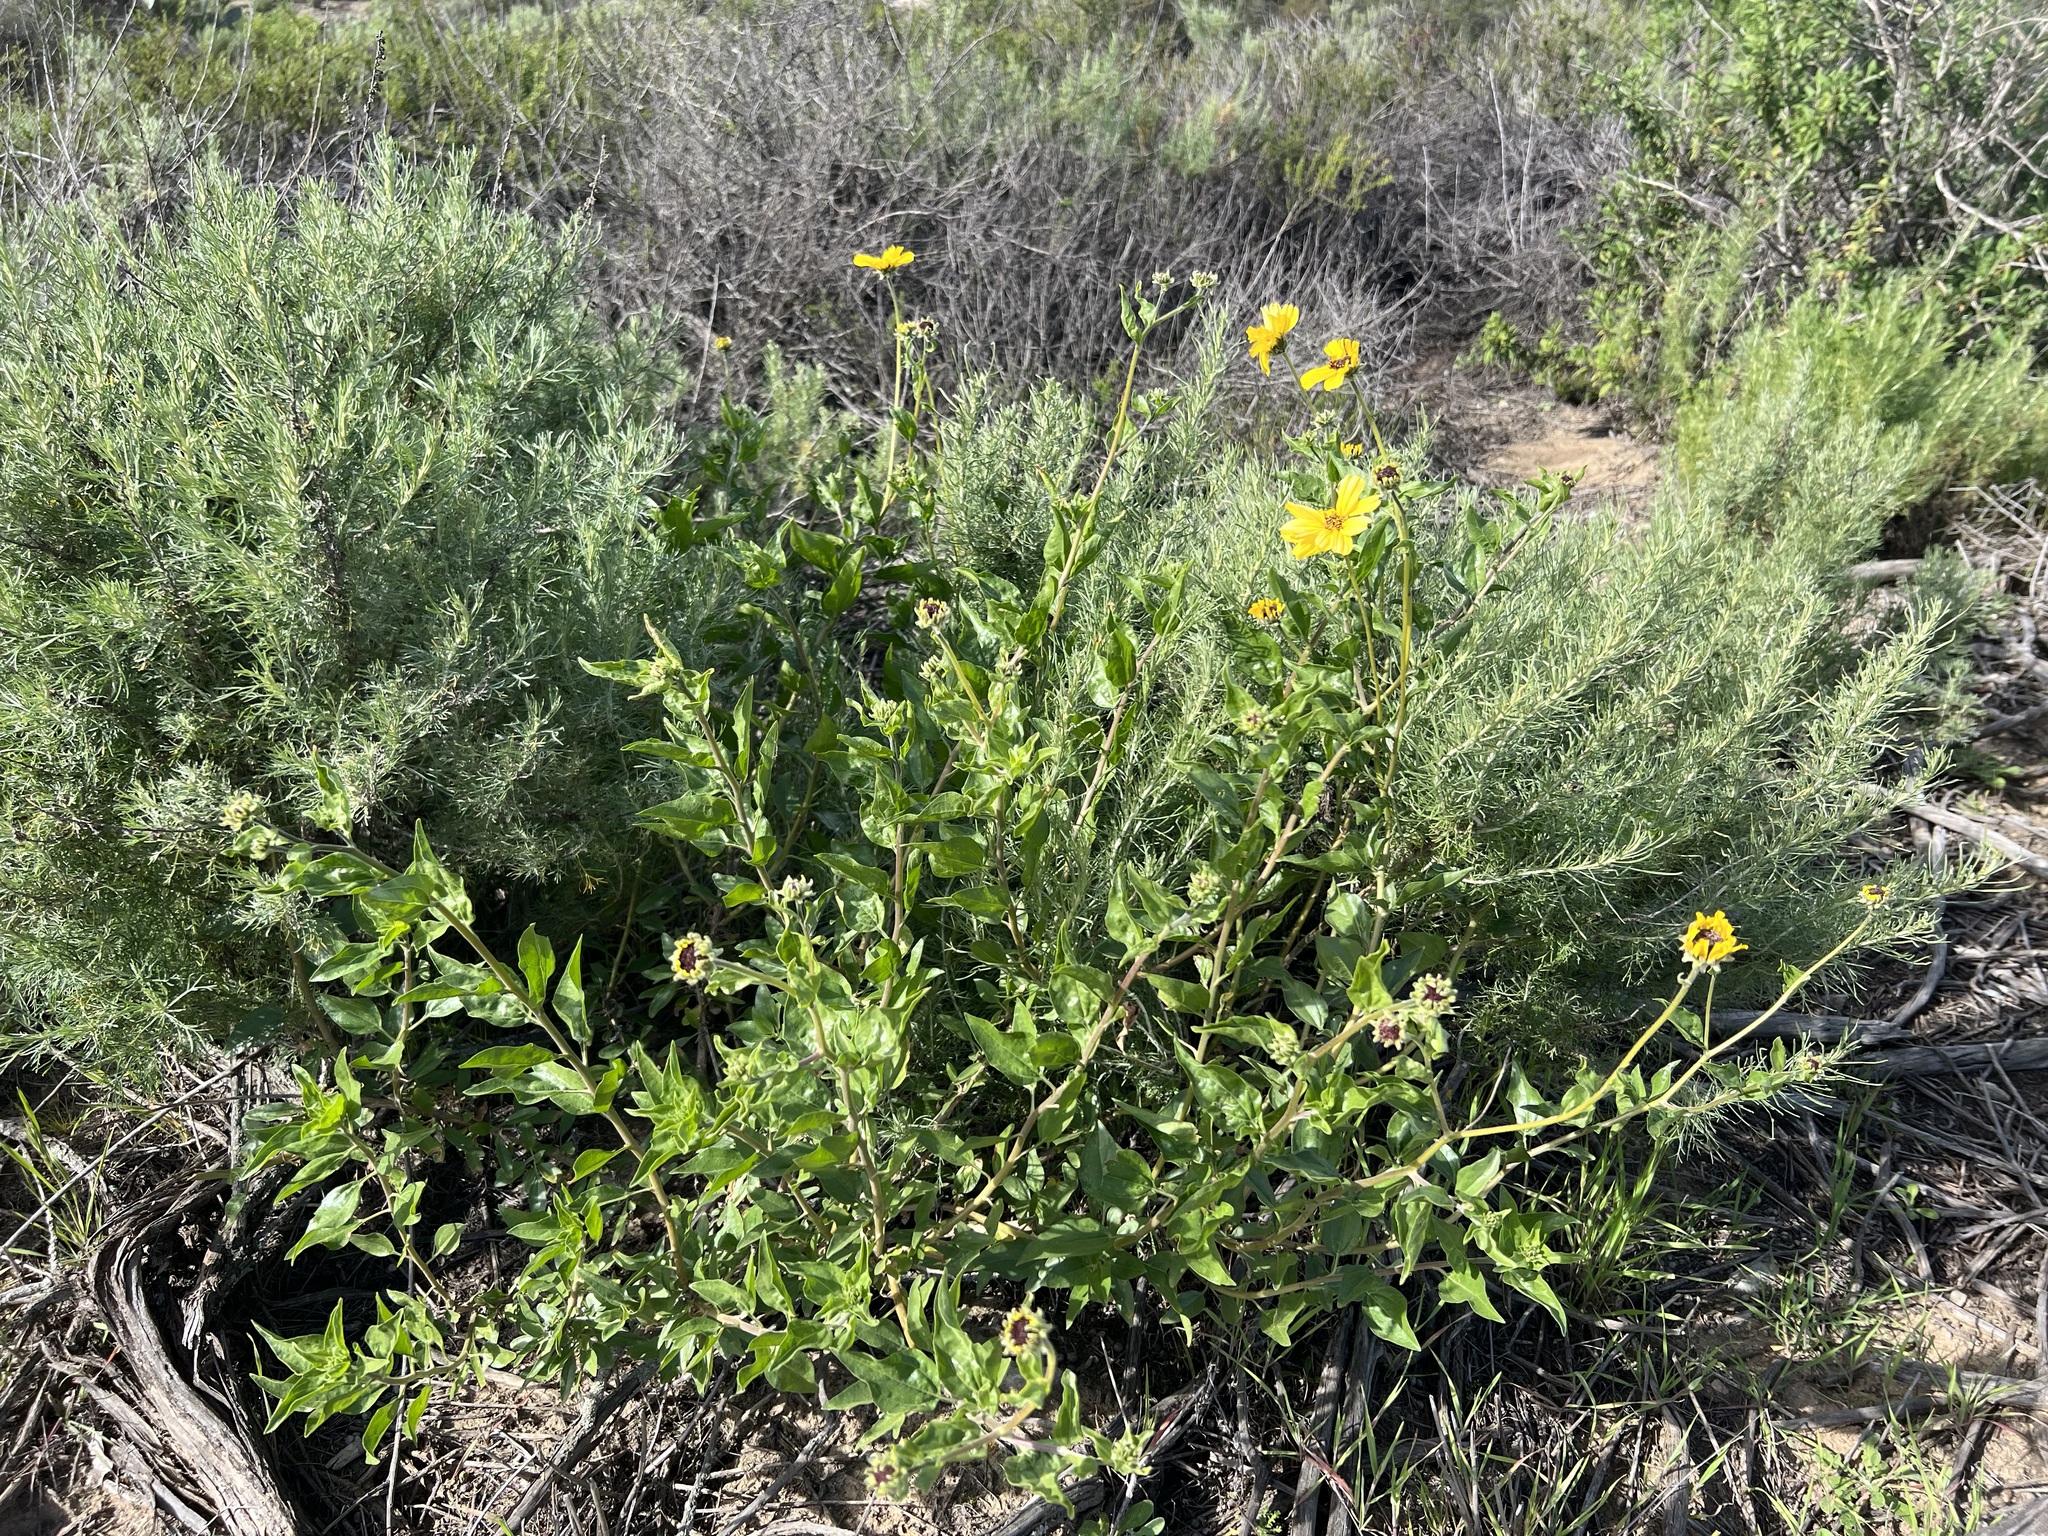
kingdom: Plantae
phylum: Tracheophyta
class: Magnoliopsida
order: Asterales
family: Asteraceae
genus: Encelia
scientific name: Encelia californica
